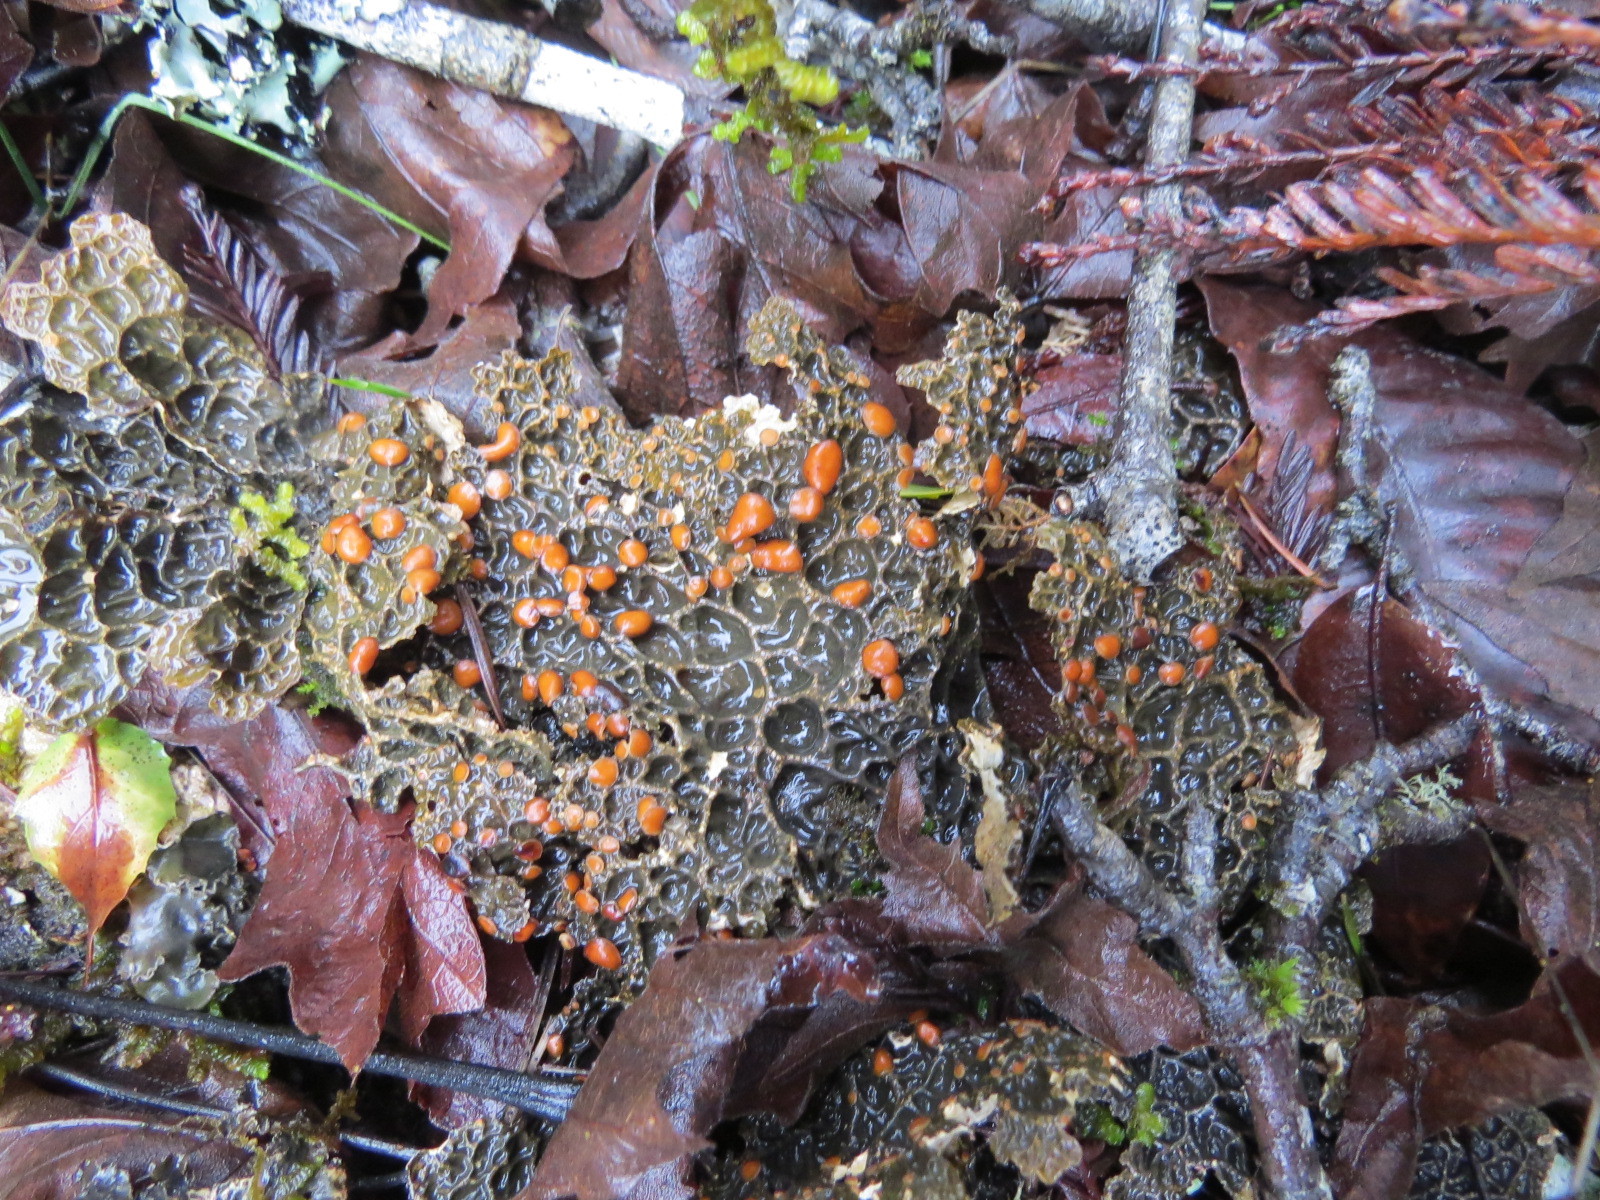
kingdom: Fungi
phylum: Ascomycota
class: Lecanoromycetes
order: Peltigerales
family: Lobariaceae
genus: Lobaria
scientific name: Lobaria anthraspis
